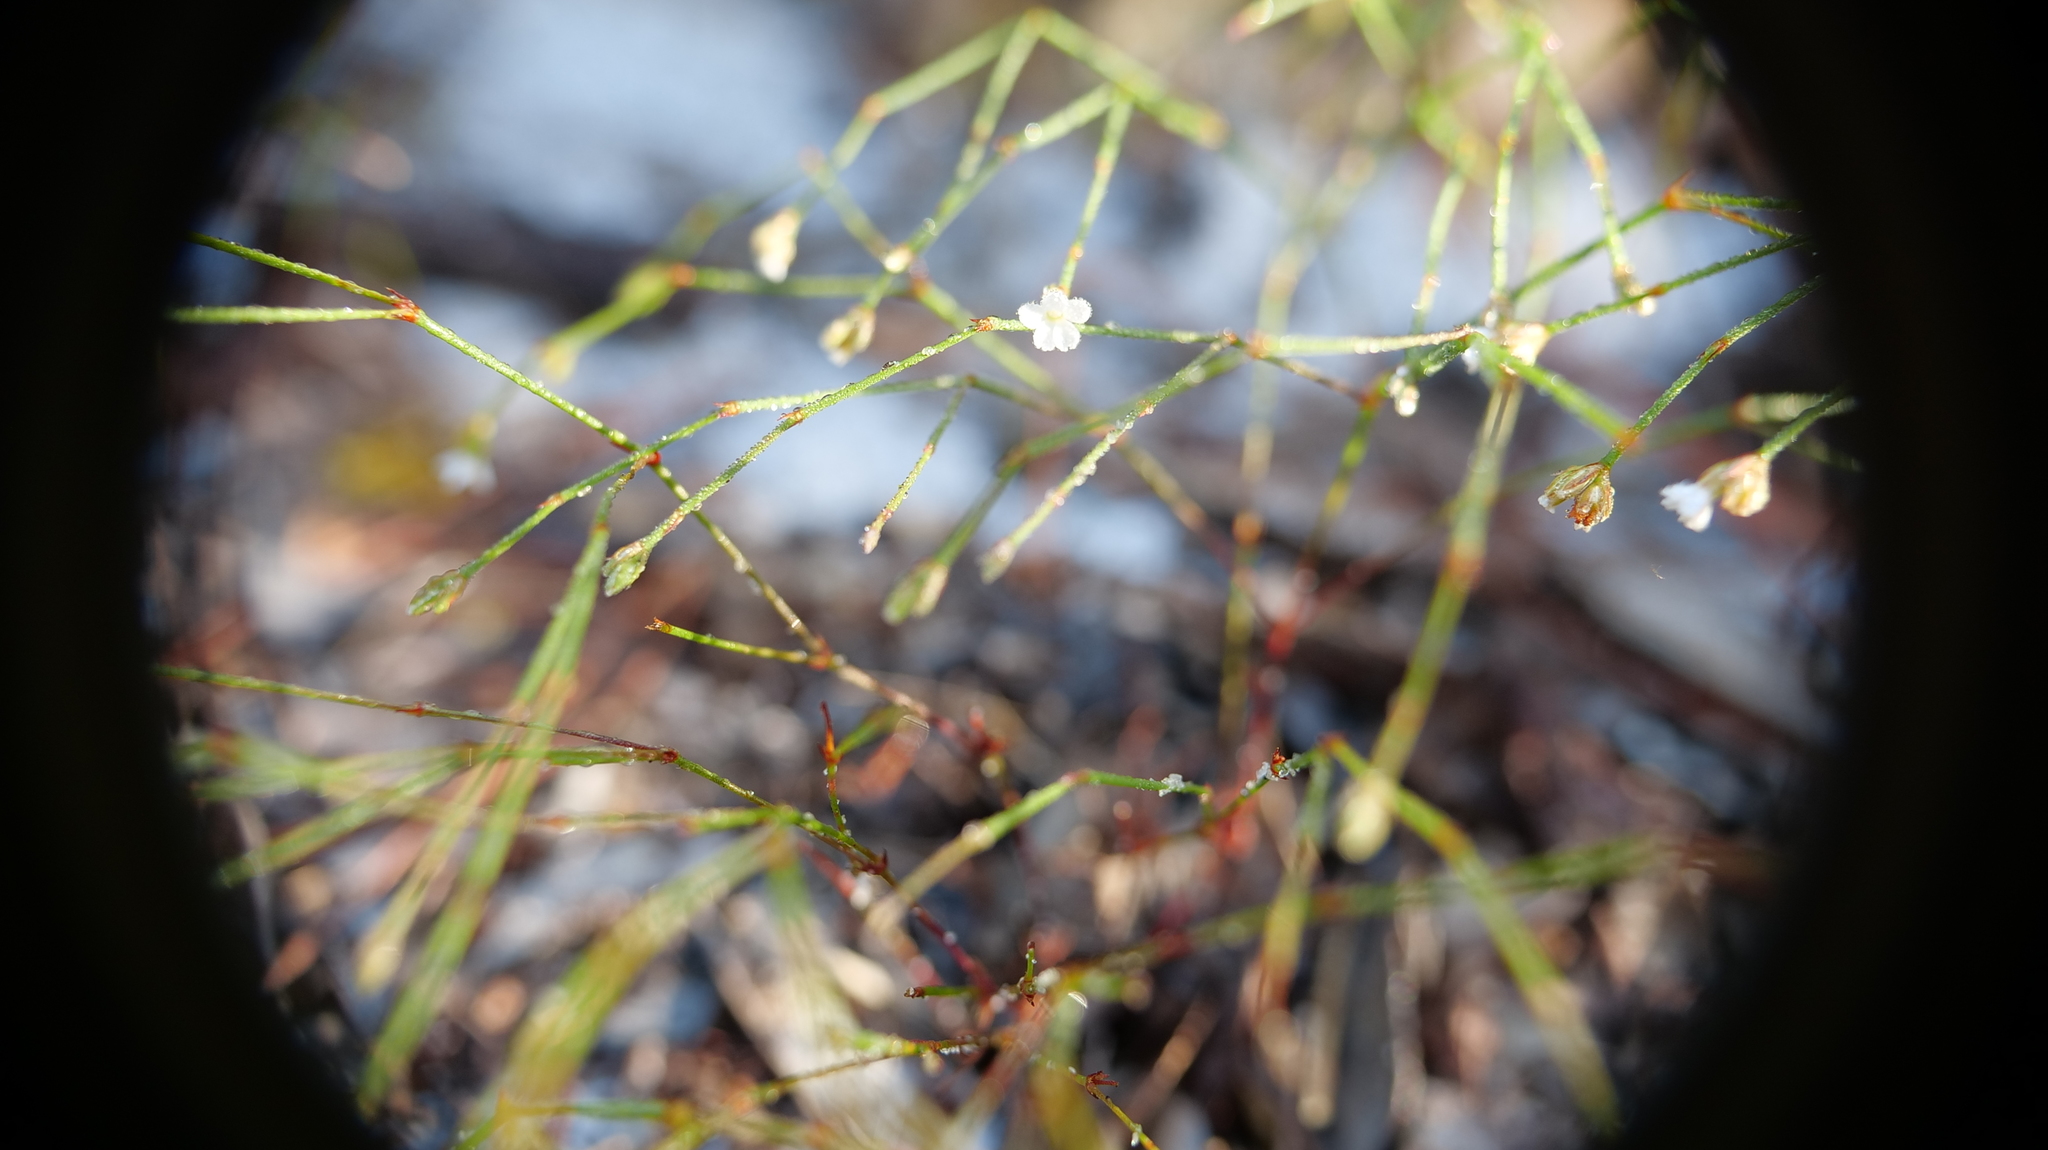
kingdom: Plantae
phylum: Tracheophyta
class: Magnoliopsida
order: Caryophyllales
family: Caryophyllaceae
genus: Stipulicida
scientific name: Stipulicida setacea
